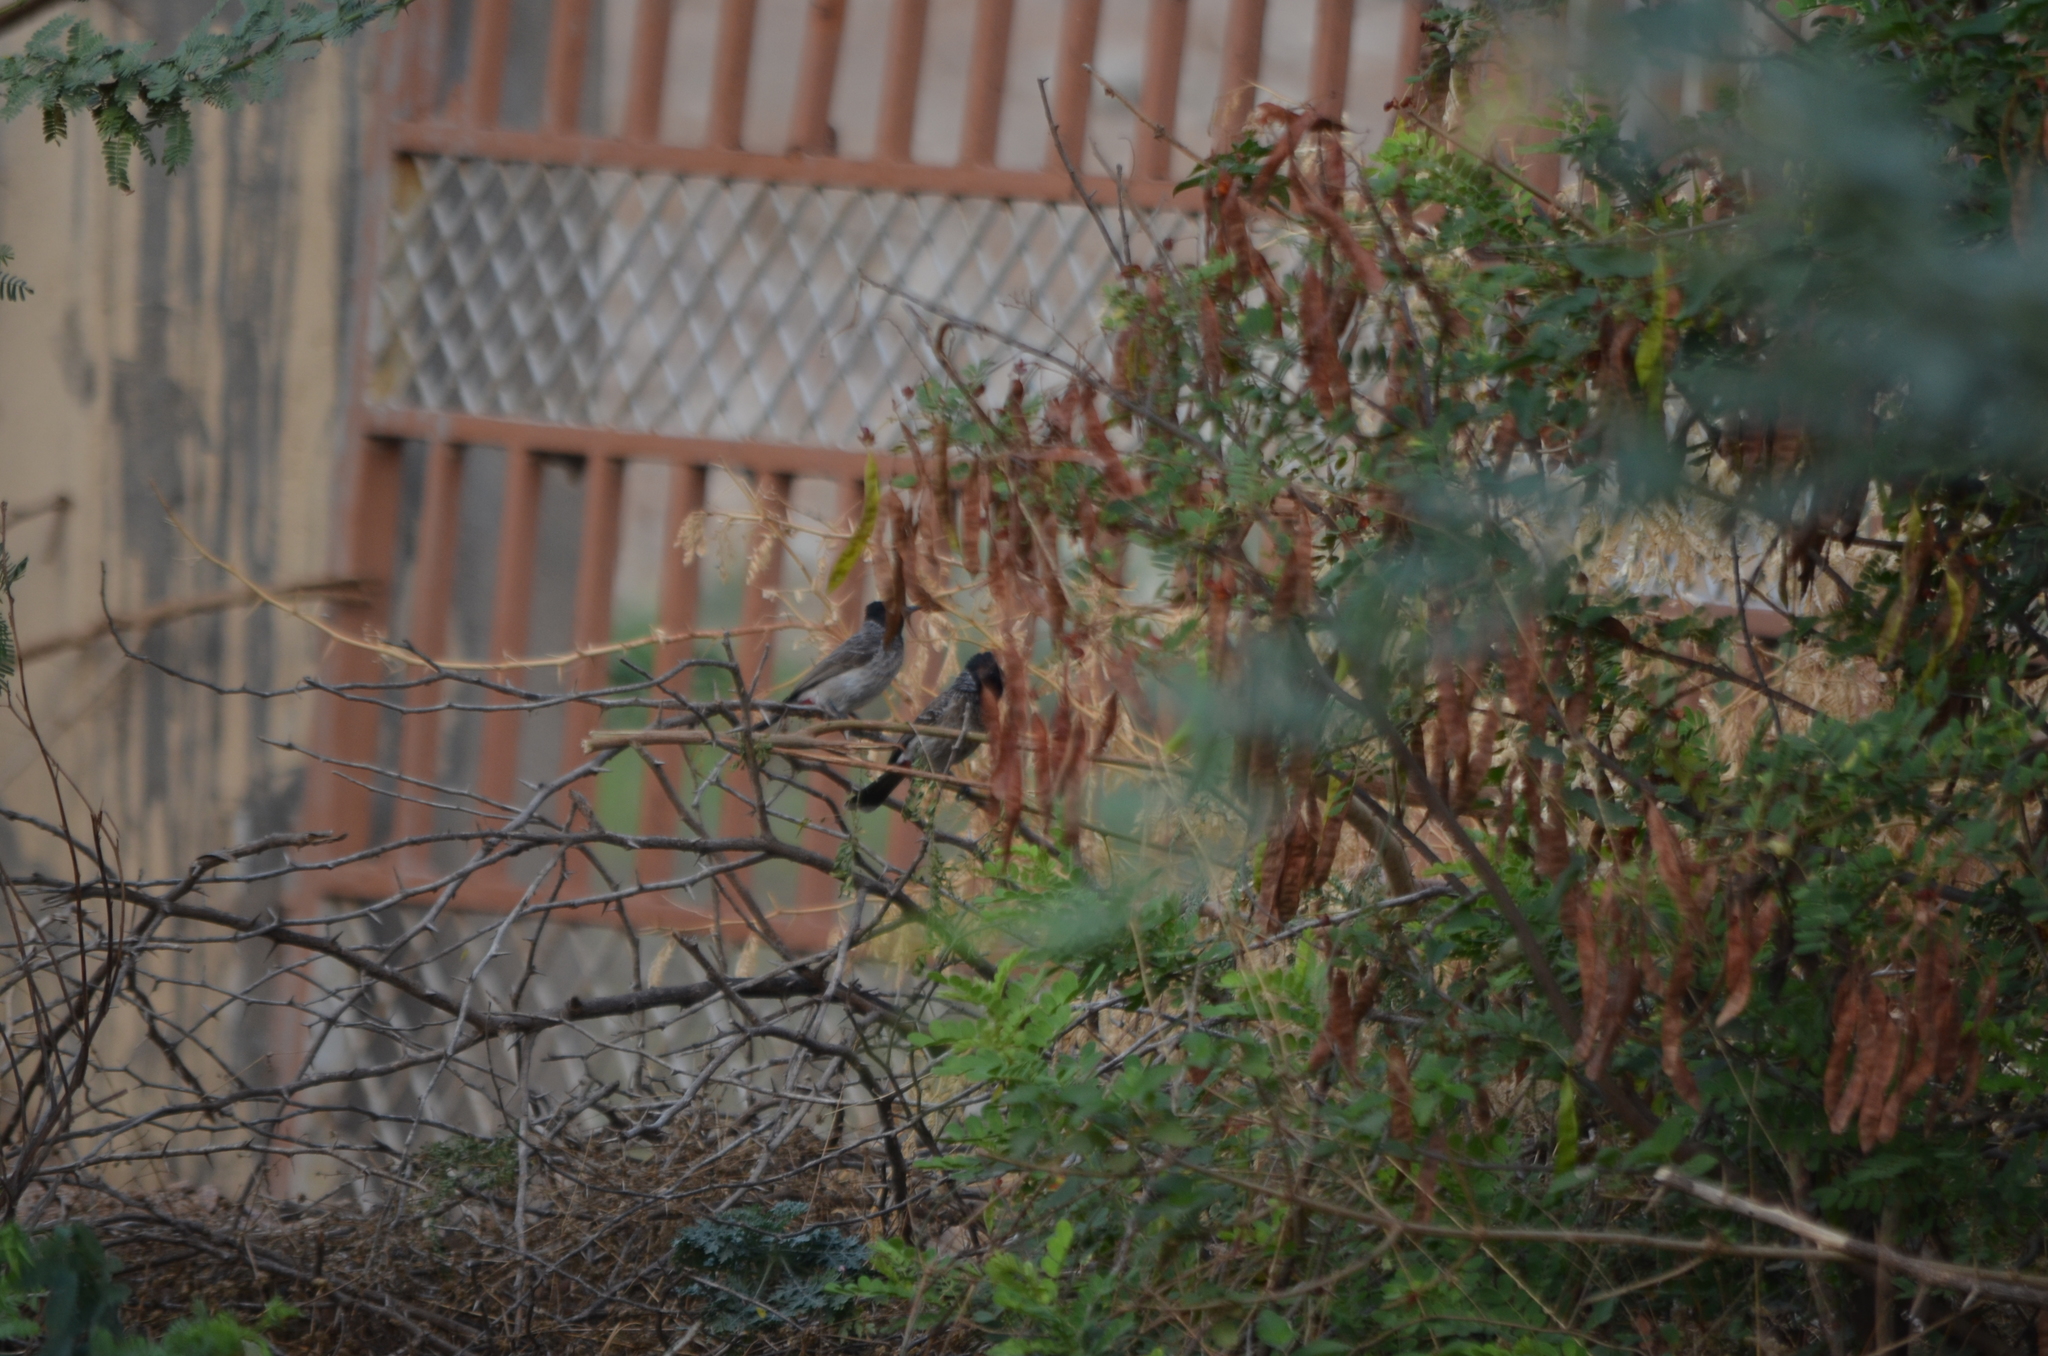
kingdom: Animalia
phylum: Chordata
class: Aves
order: Passeriformes
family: Pycnonotidae
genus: Pycnonotus
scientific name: Pycnonotus cafer
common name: Red-vented bulbul
